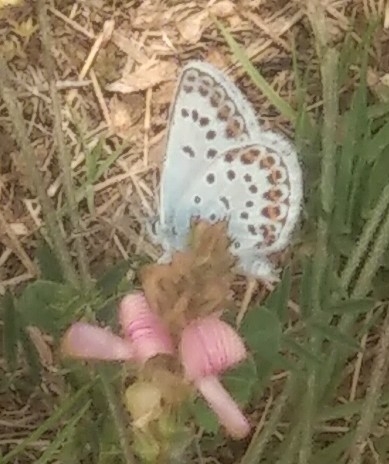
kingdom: Animalia
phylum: Arthropoda
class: Insecta
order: Lepidoptera
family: Lycaenidae
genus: Plebejus
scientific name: Plebejus argus
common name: Silver-studded blue
